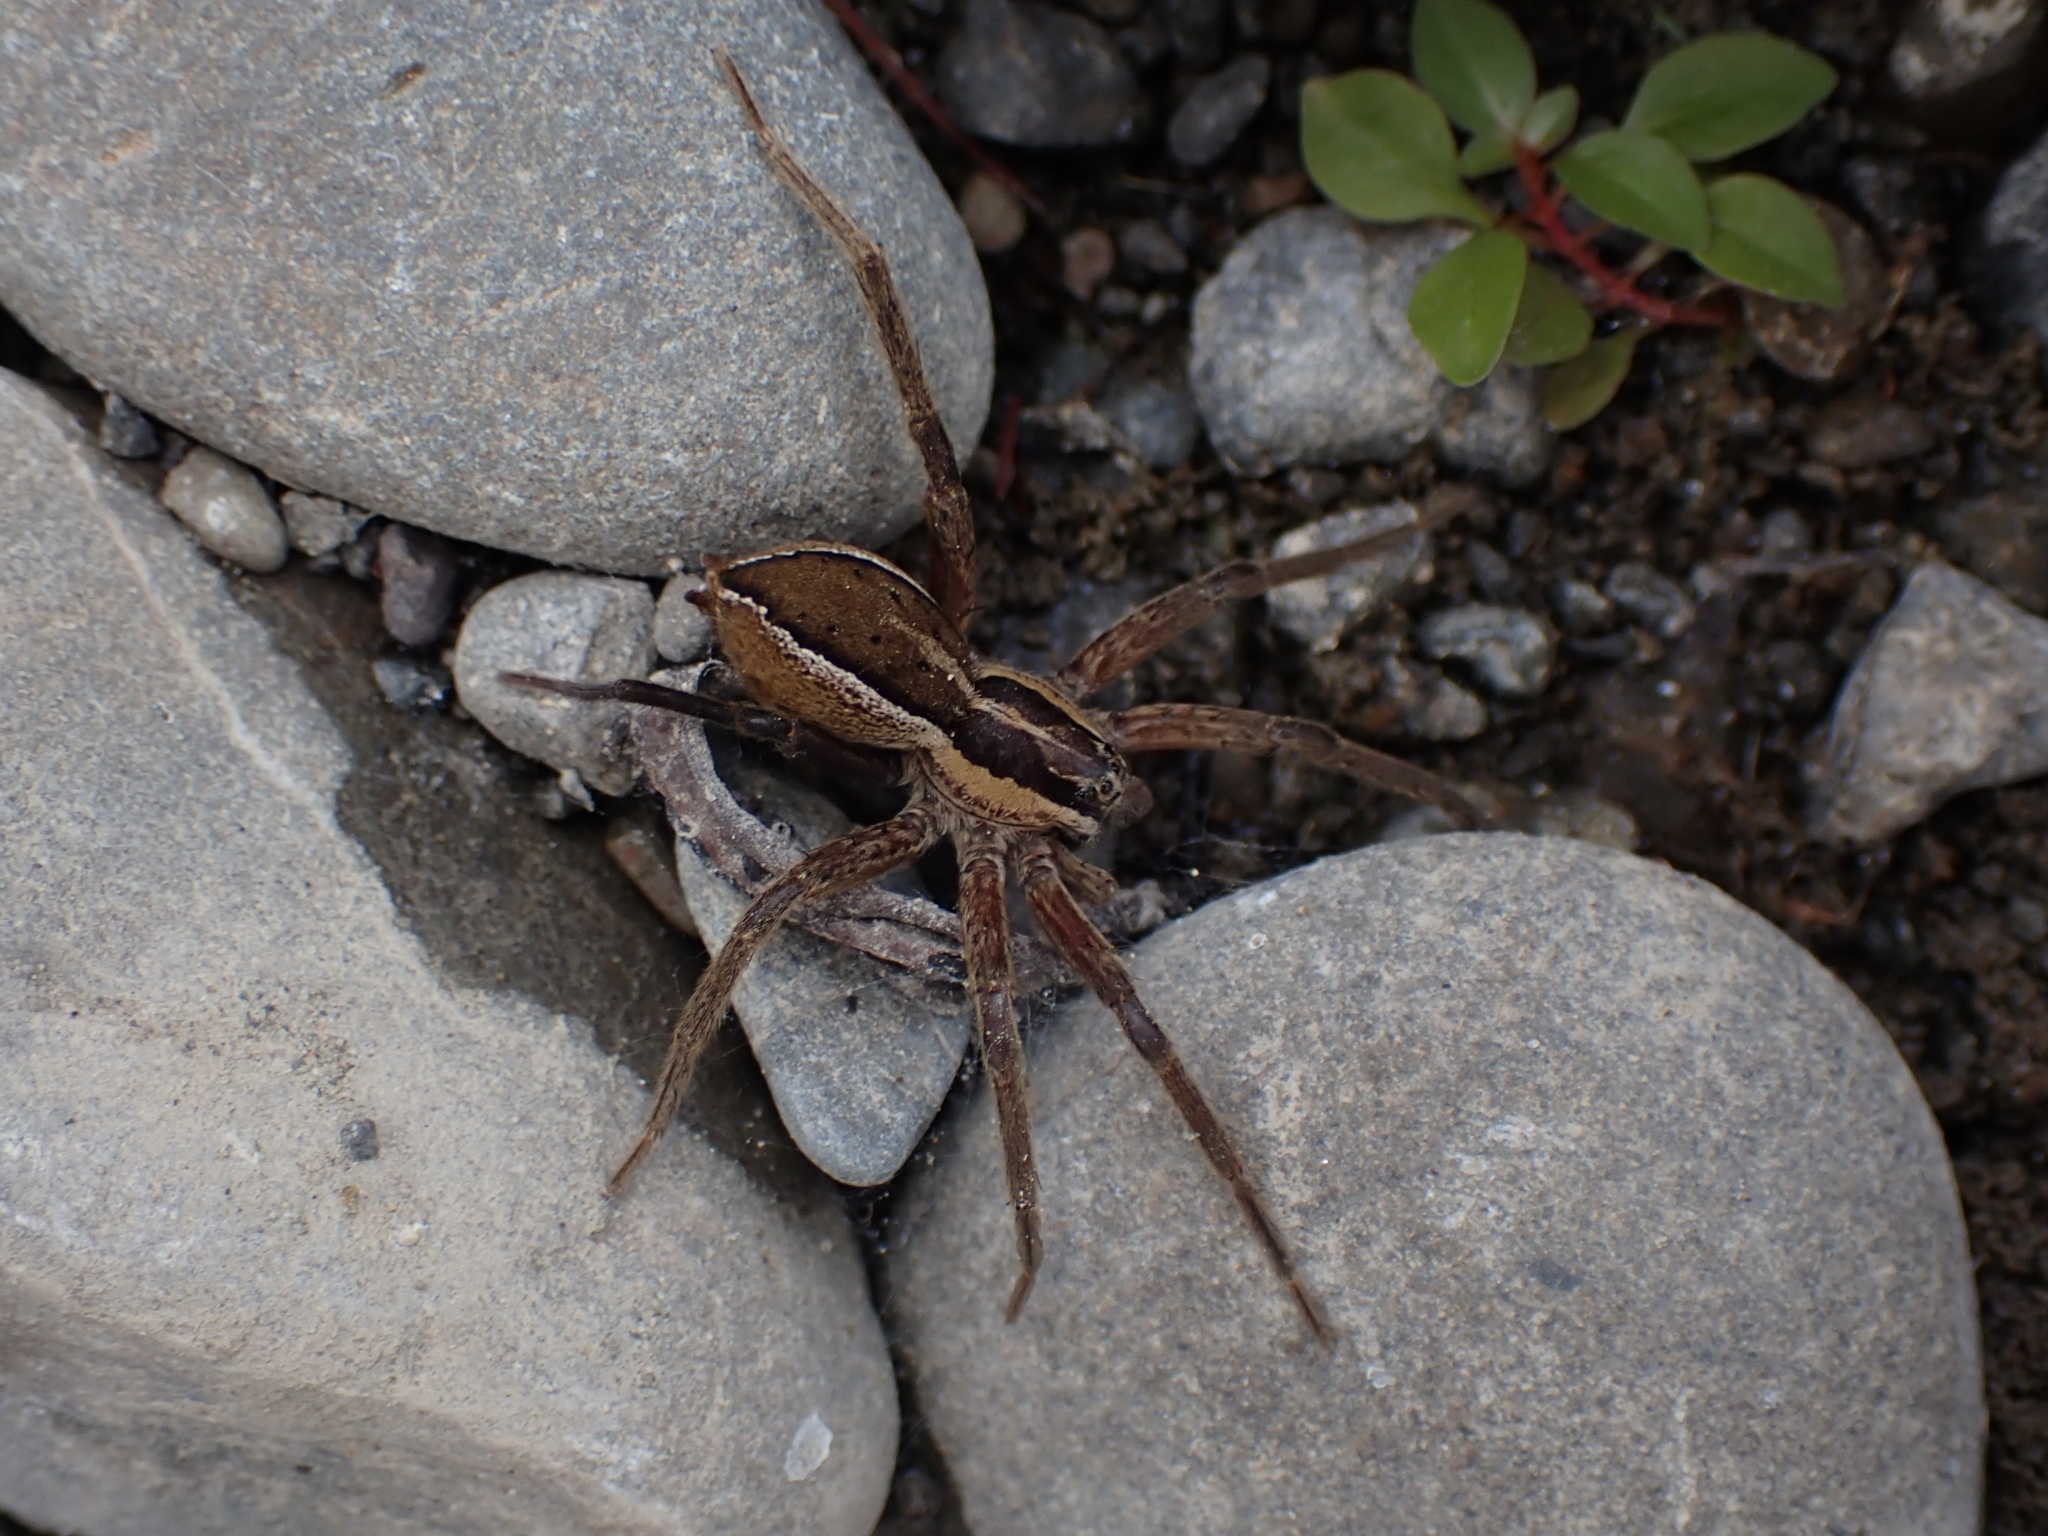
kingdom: Animalia
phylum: Arthropoda
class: Arachnida
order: Araneae
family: Pisauridae
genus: Dolomedes
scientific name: Dolomedes minor
